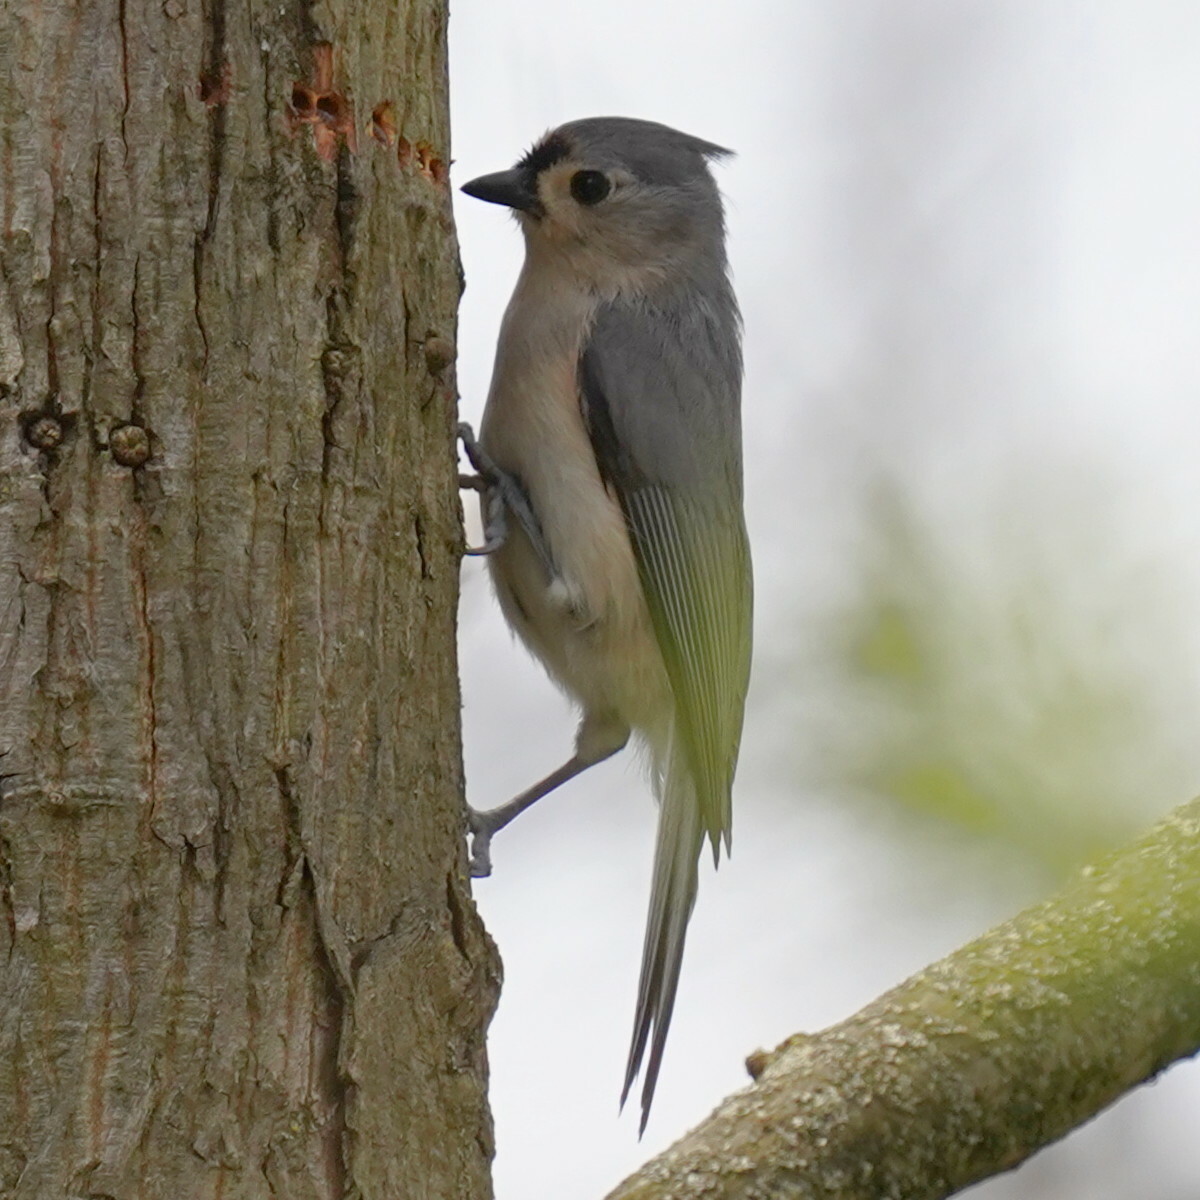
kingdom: Animalia
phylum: Chordata
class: Aves
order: Passeriformes
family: Paridae
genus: Baeolophus
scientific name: Baeolophus bicolor
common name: Tufted titmouse
